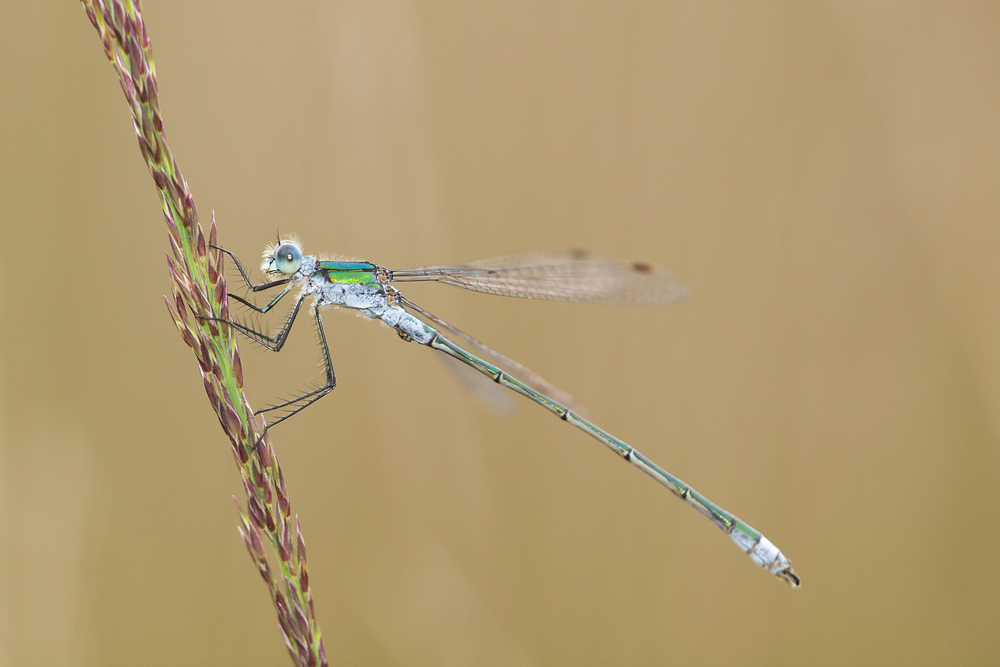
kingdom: Animalia
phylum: Arthropoda
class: Insecta
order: Odonata
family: Lestidae
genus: Lestes
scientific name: Lestes sponsa
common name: Common spreadwing
